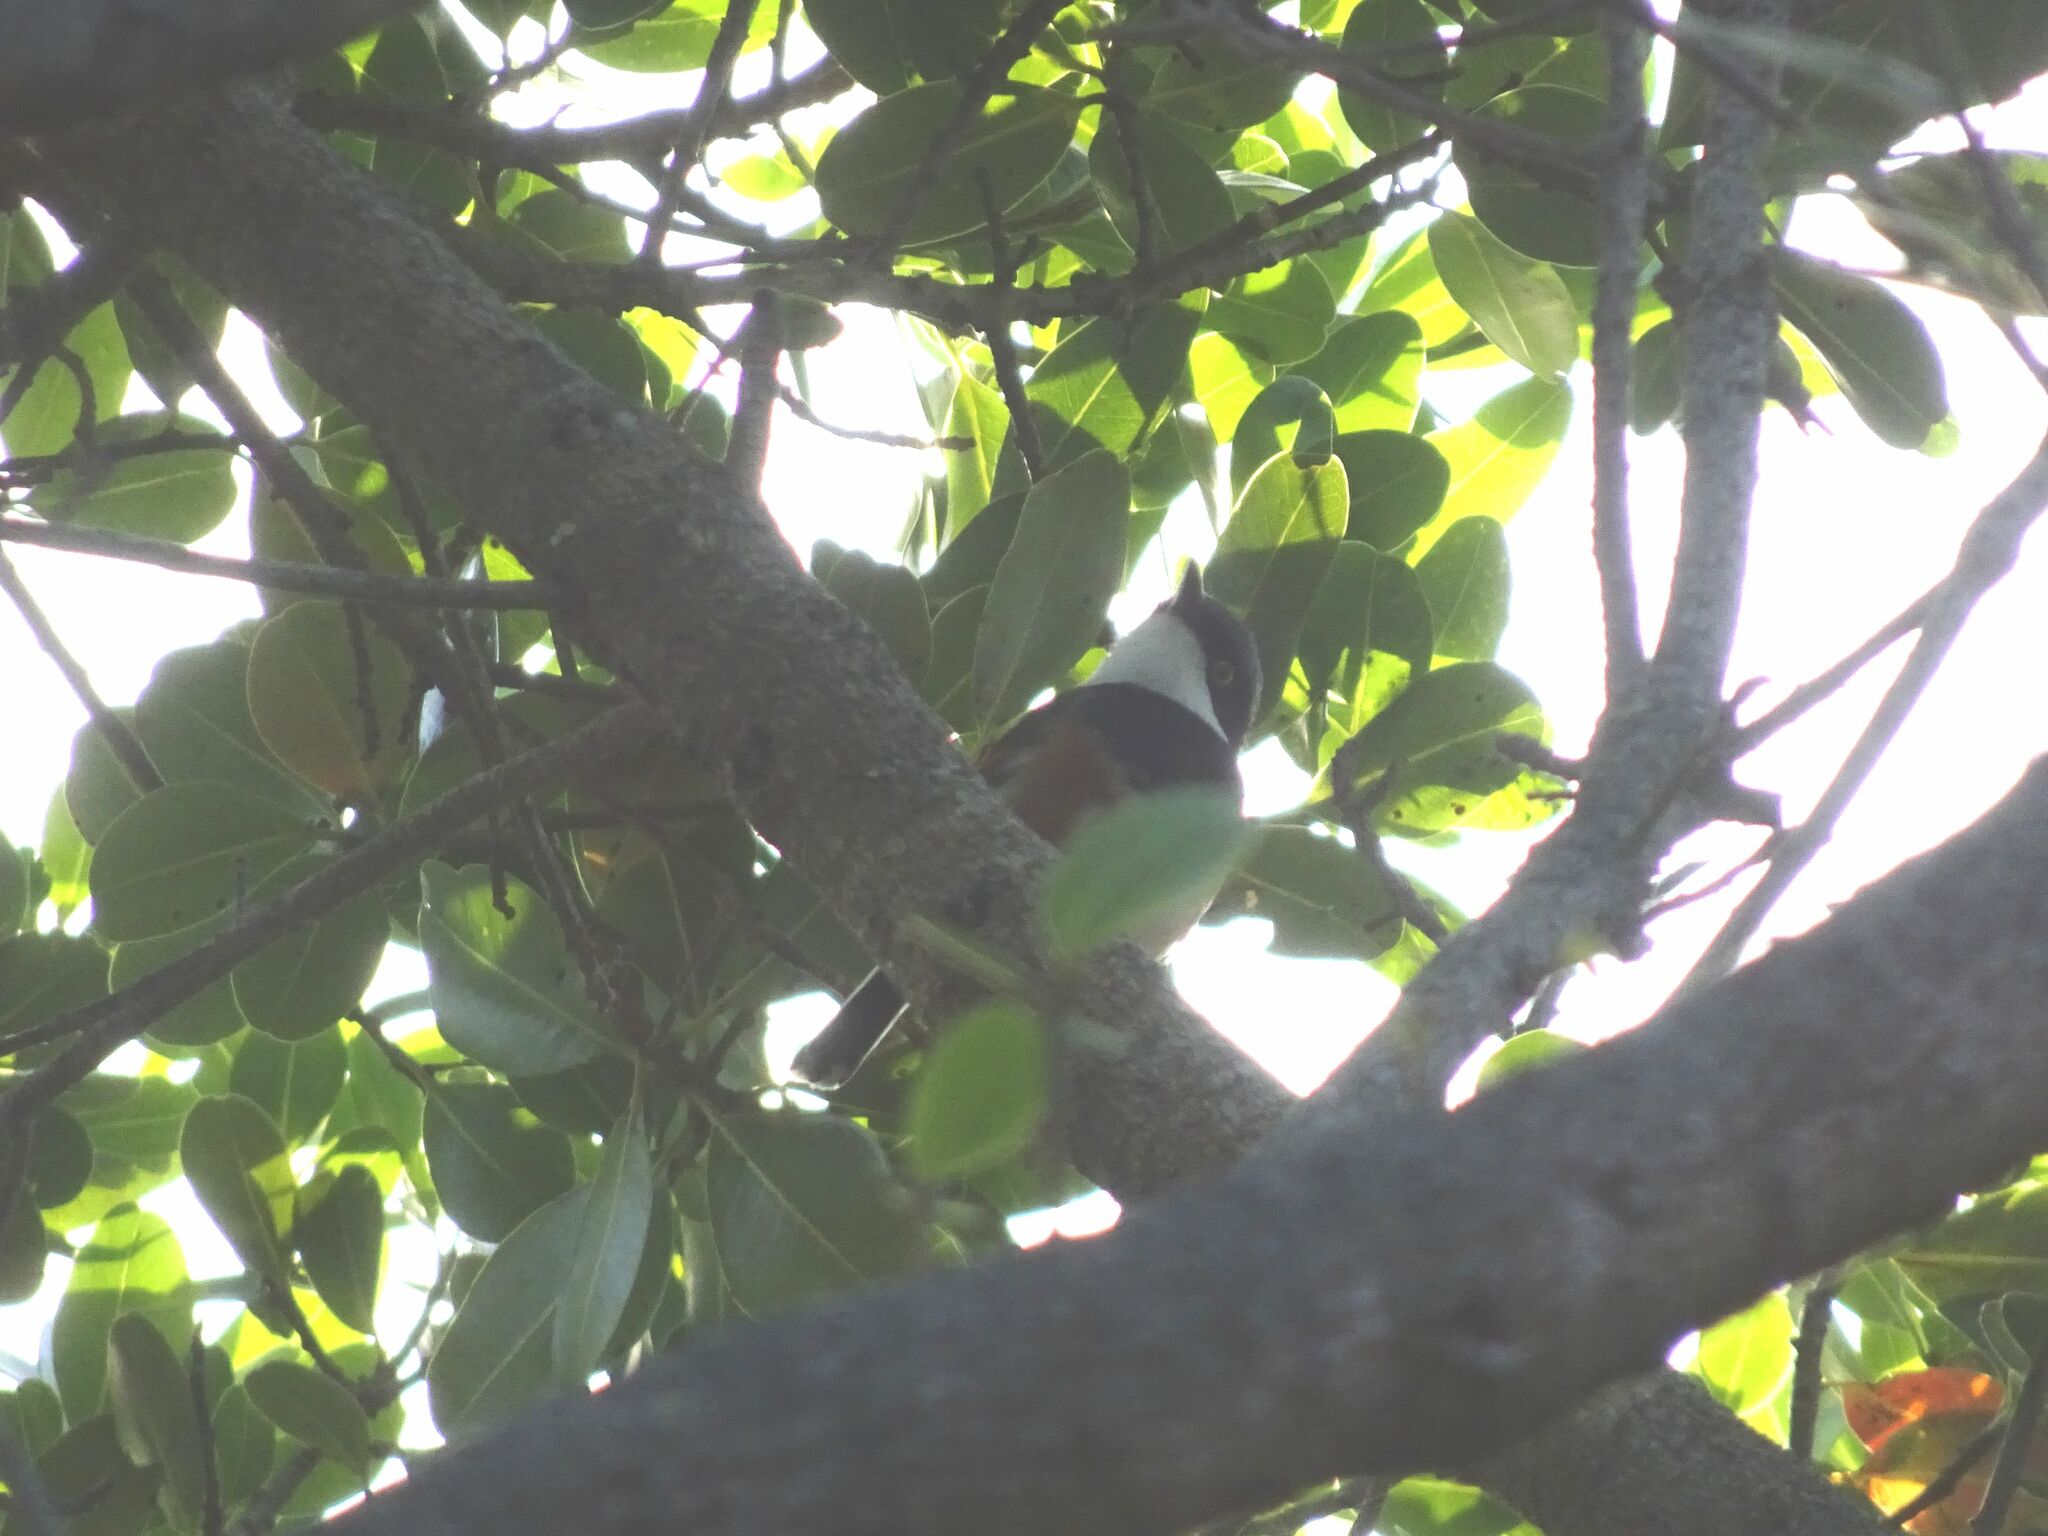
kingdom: Animalia
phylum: Chordata
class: Aves
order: Passeriformes
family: Platysteiridae
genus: Batis
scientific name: Batis capensis
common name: Cape batis
